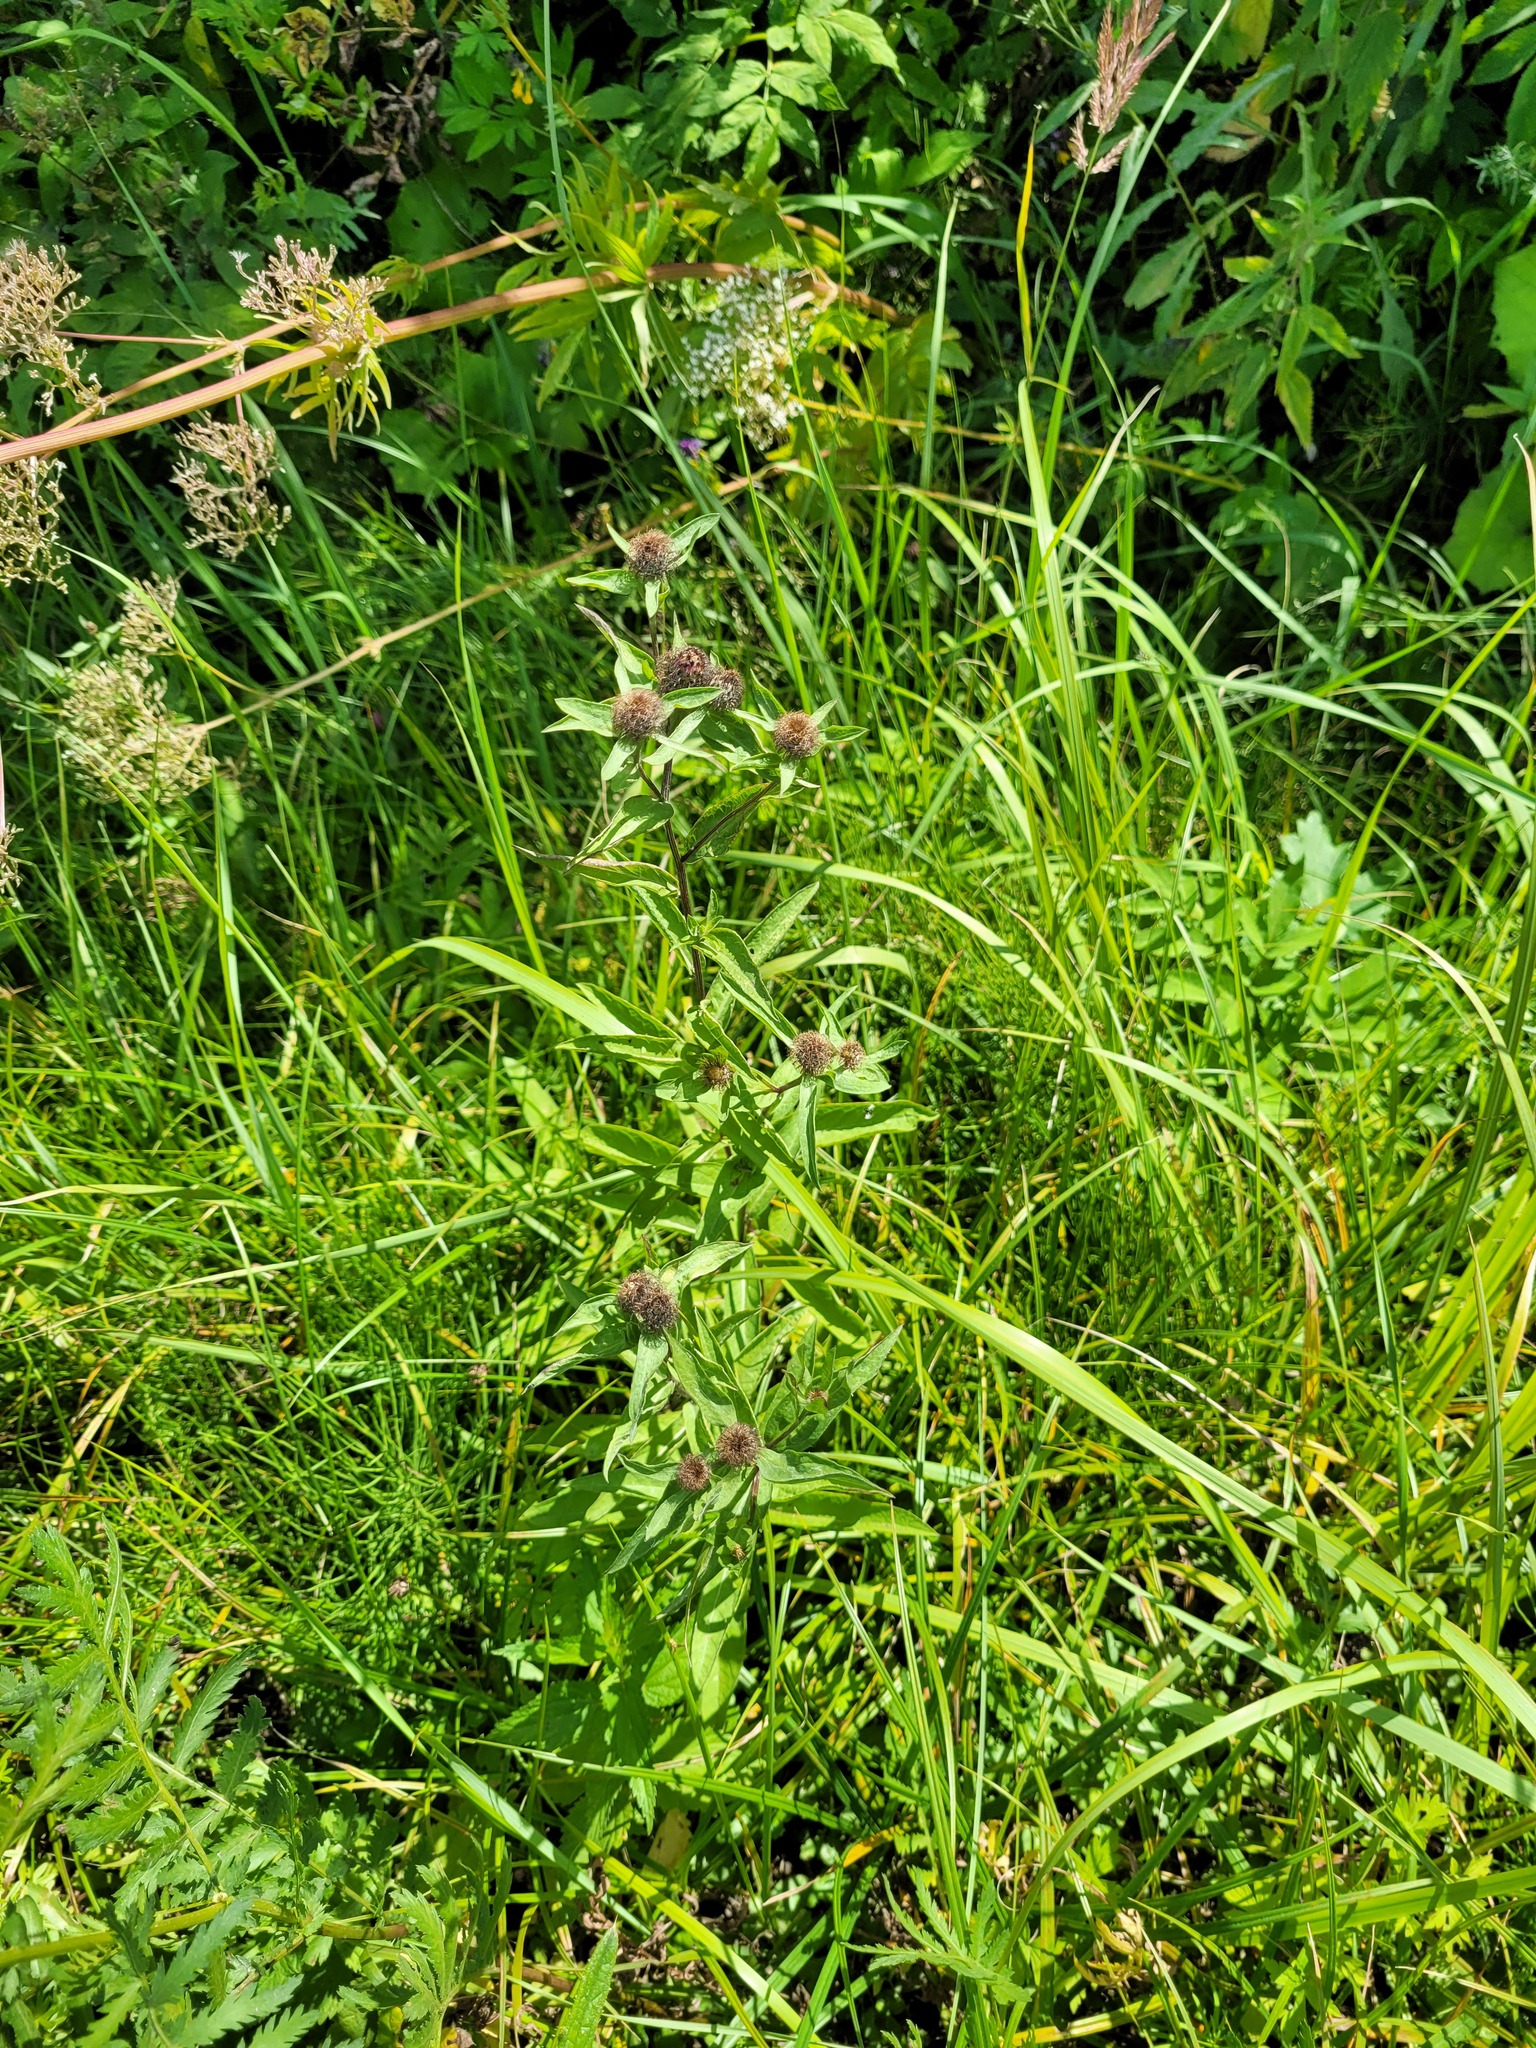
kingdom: Plantae
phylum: Tracheophyta
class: Magnoliopsida
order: Asterales
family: Asteraceae
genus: Centaurea
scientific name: Centaurea pseudophrygia
